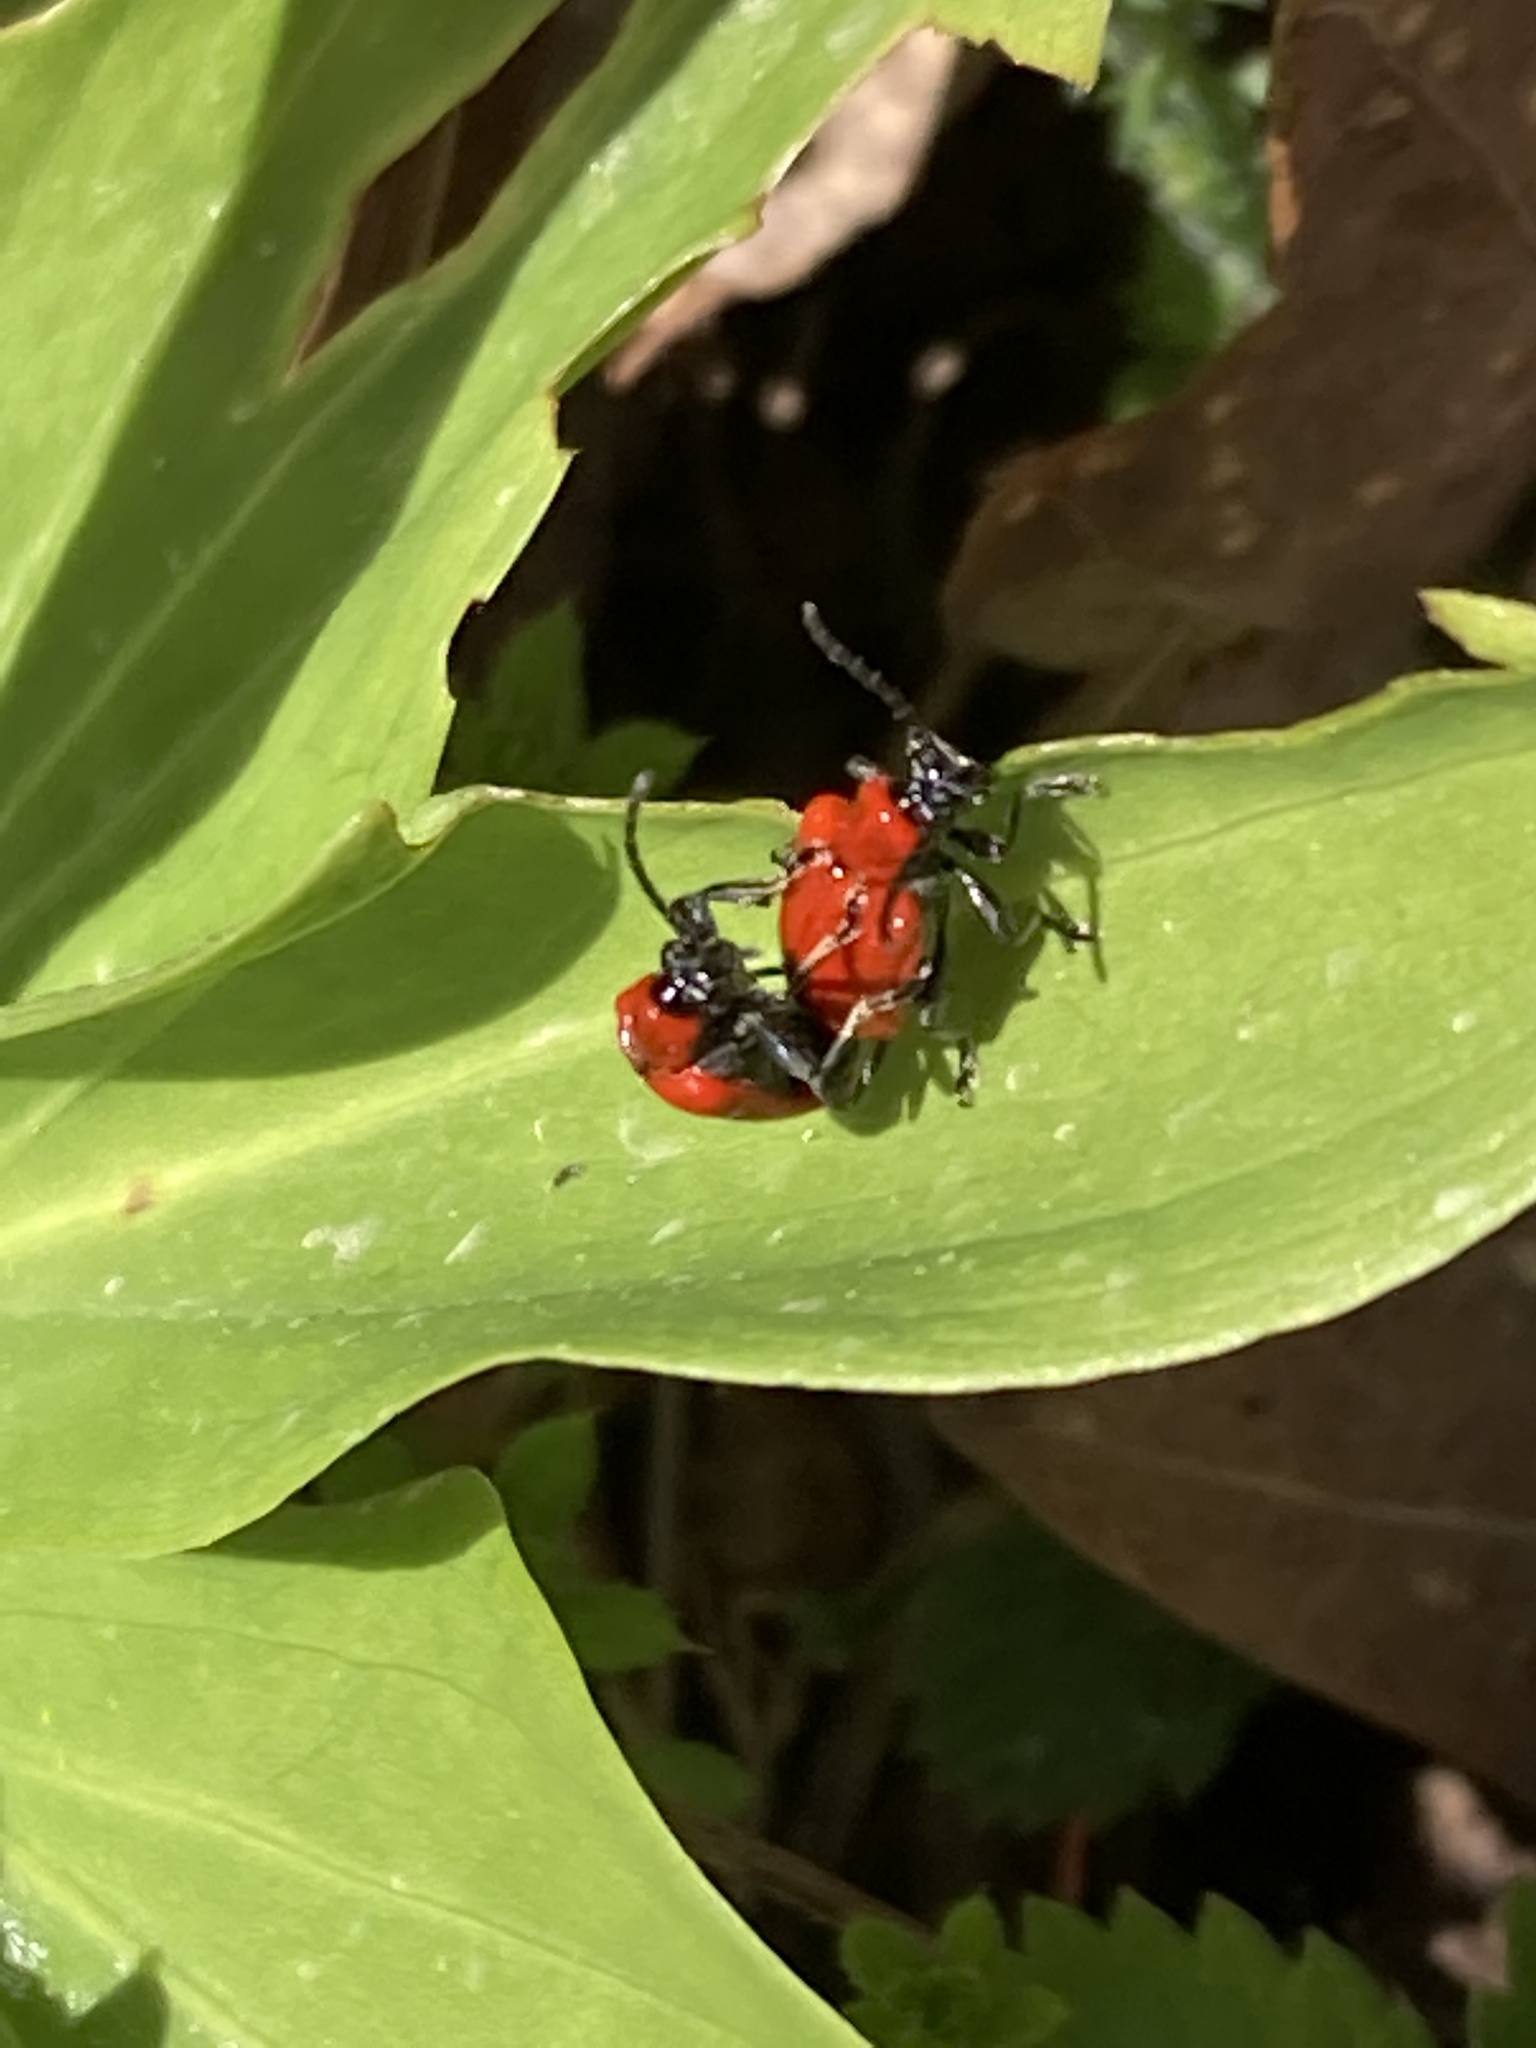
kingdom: Animalia
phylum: Arthropoda
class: Insecta
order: Coleoptera
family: Chrysomelidae
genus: Lilioceris
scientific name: Lilioceris lilii
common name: Lily beetle
